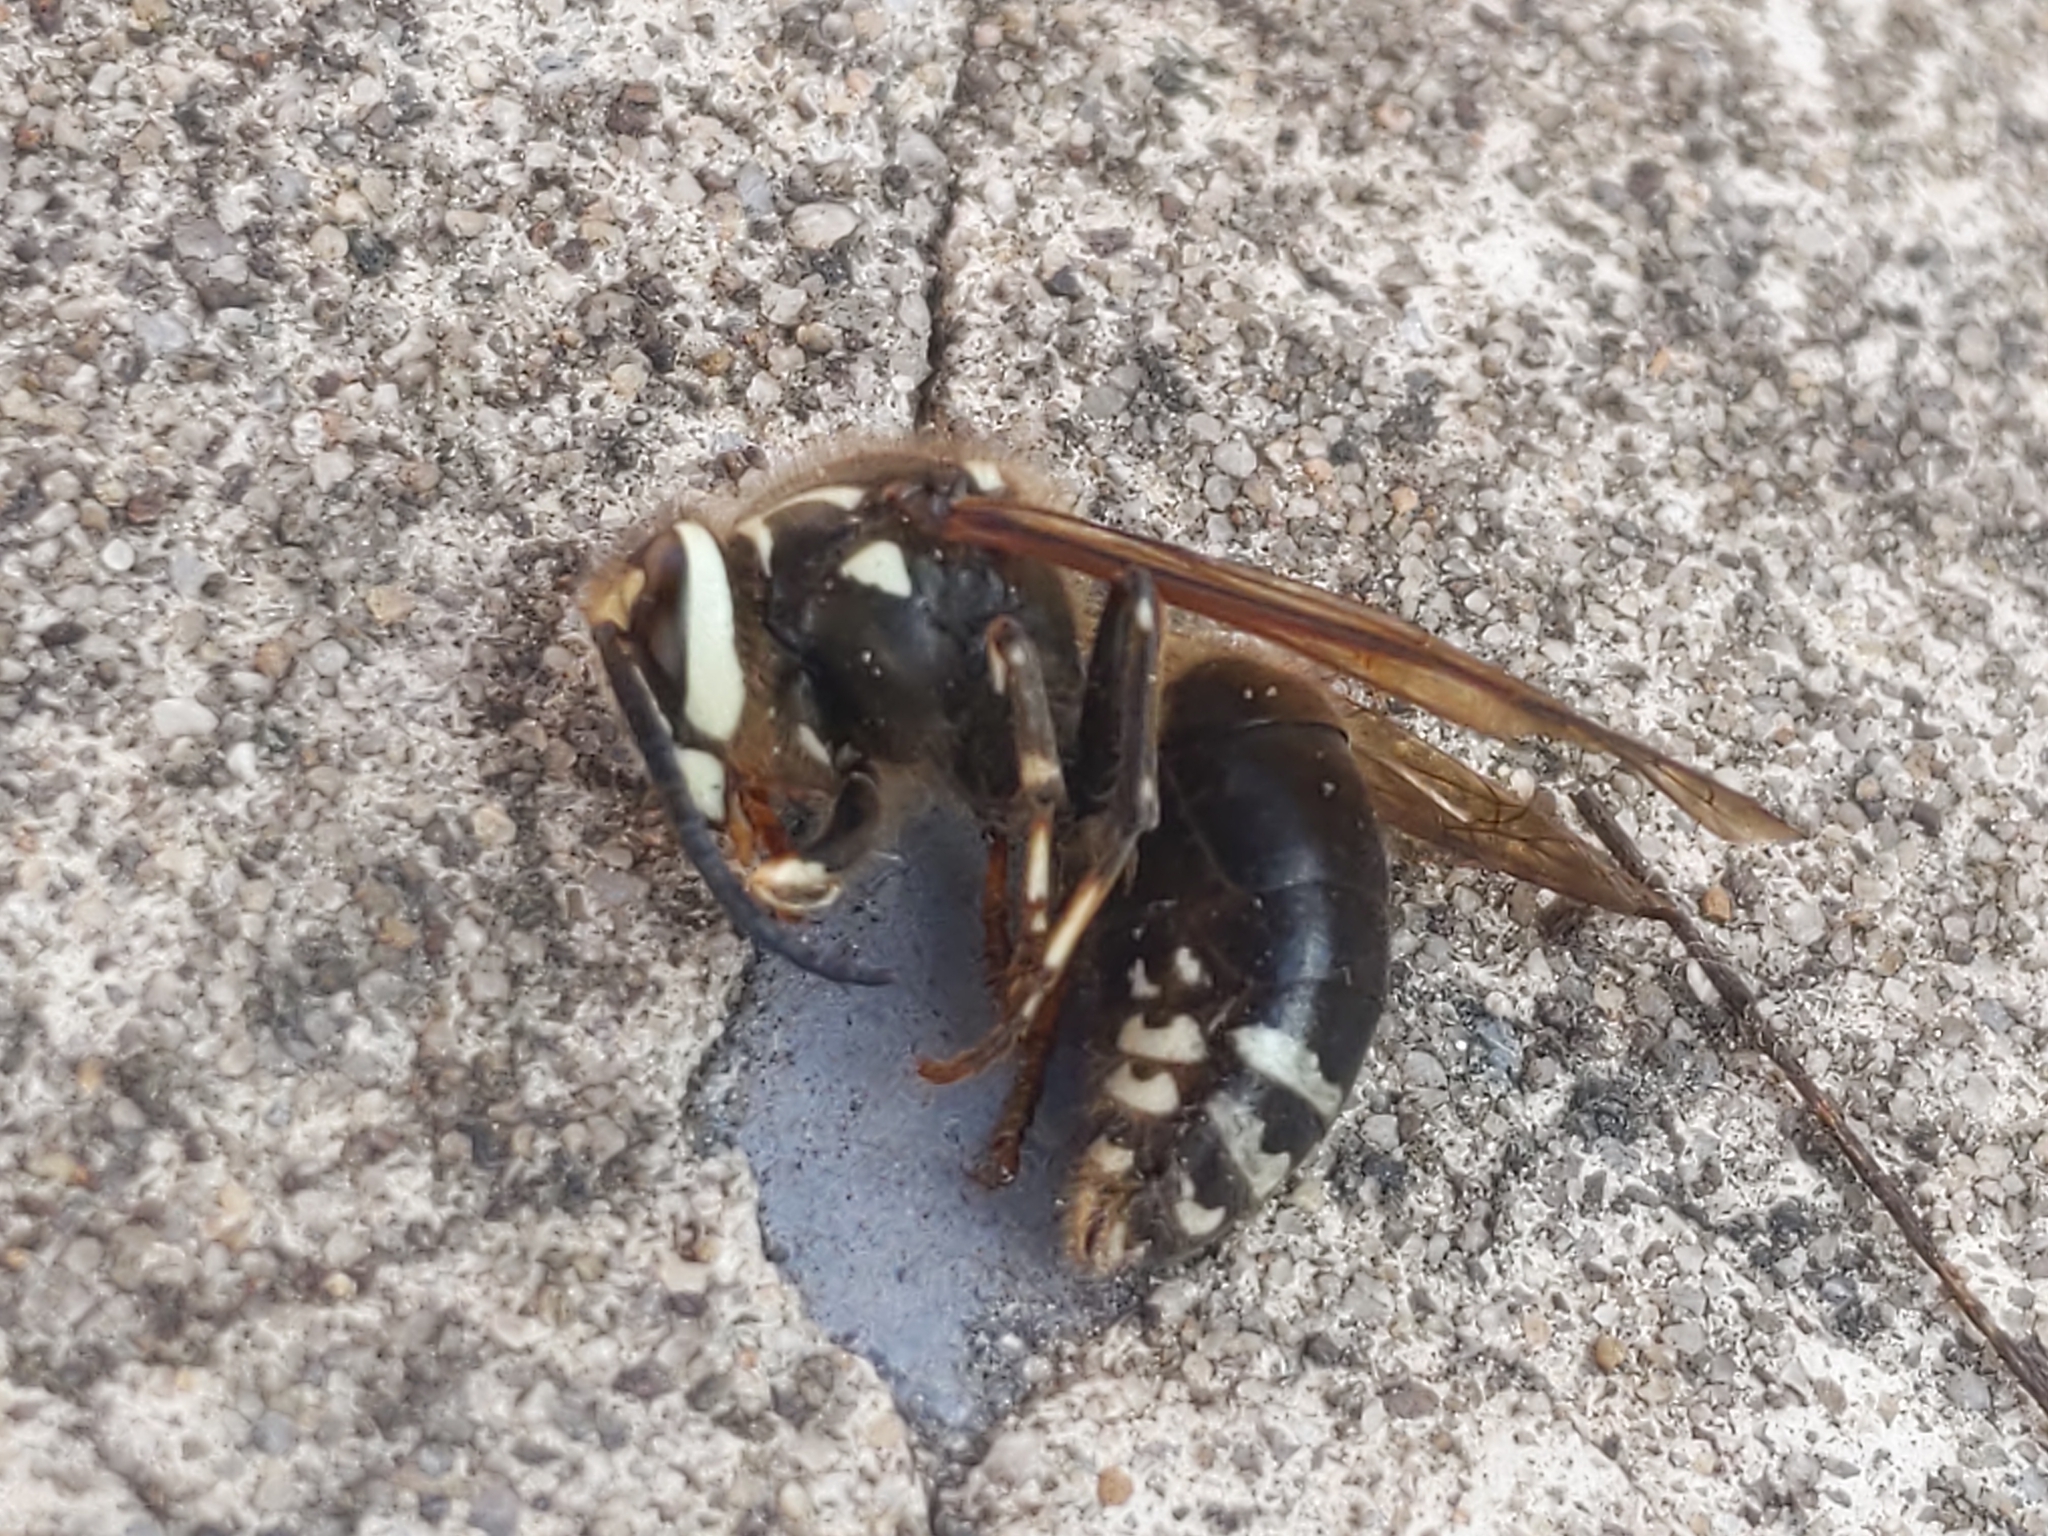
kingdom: Animalia
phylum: Arthropoda
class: Insecta
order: Hymenoptera
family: Vespidae
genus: Dolichovespula
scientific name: Dolichovespula maculata
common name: Bald-faced hornet
